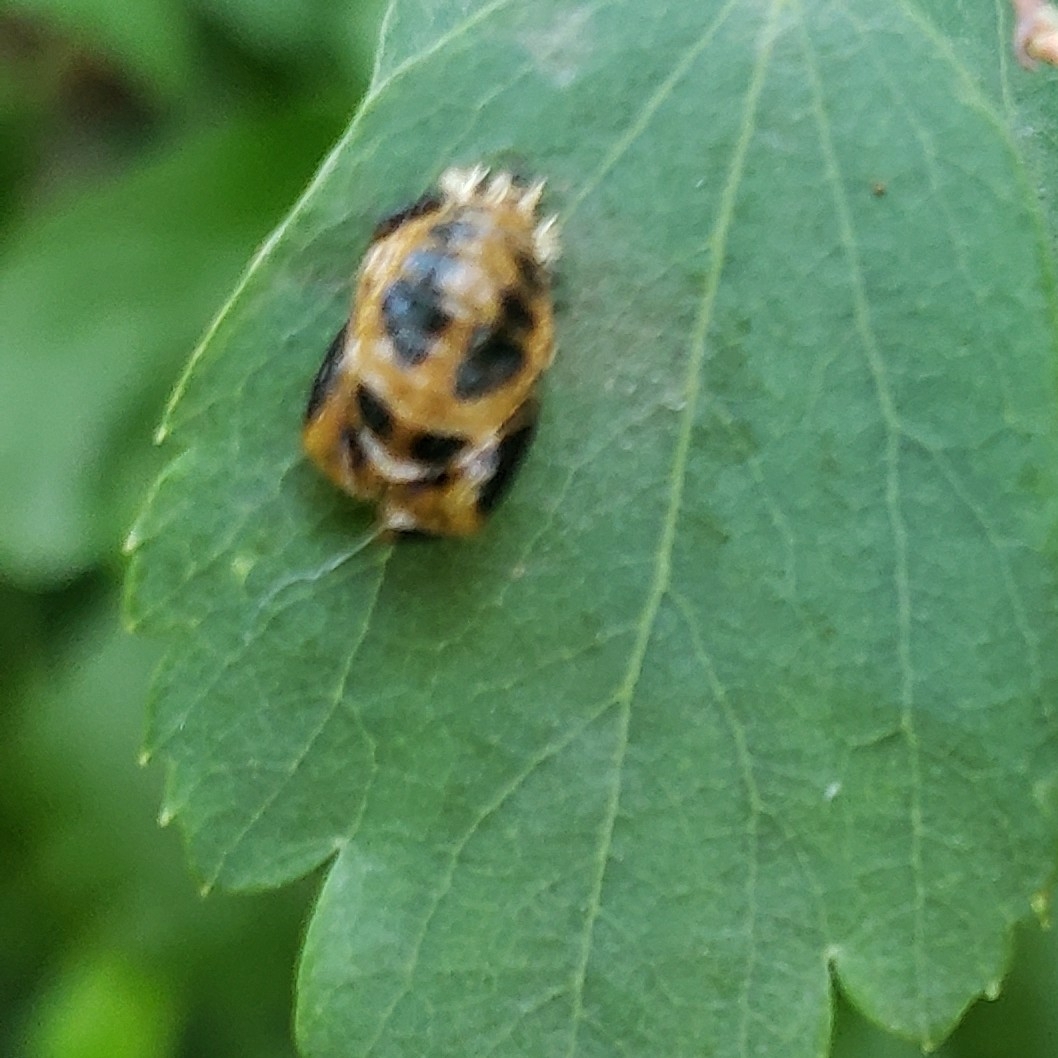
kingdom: Animalia
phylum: Arthropoda
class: Insecta
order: Coleoptera
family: Coccinellidae
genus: Harmonia
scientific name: Harmonia axyridis
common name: Harlequin ladybird
